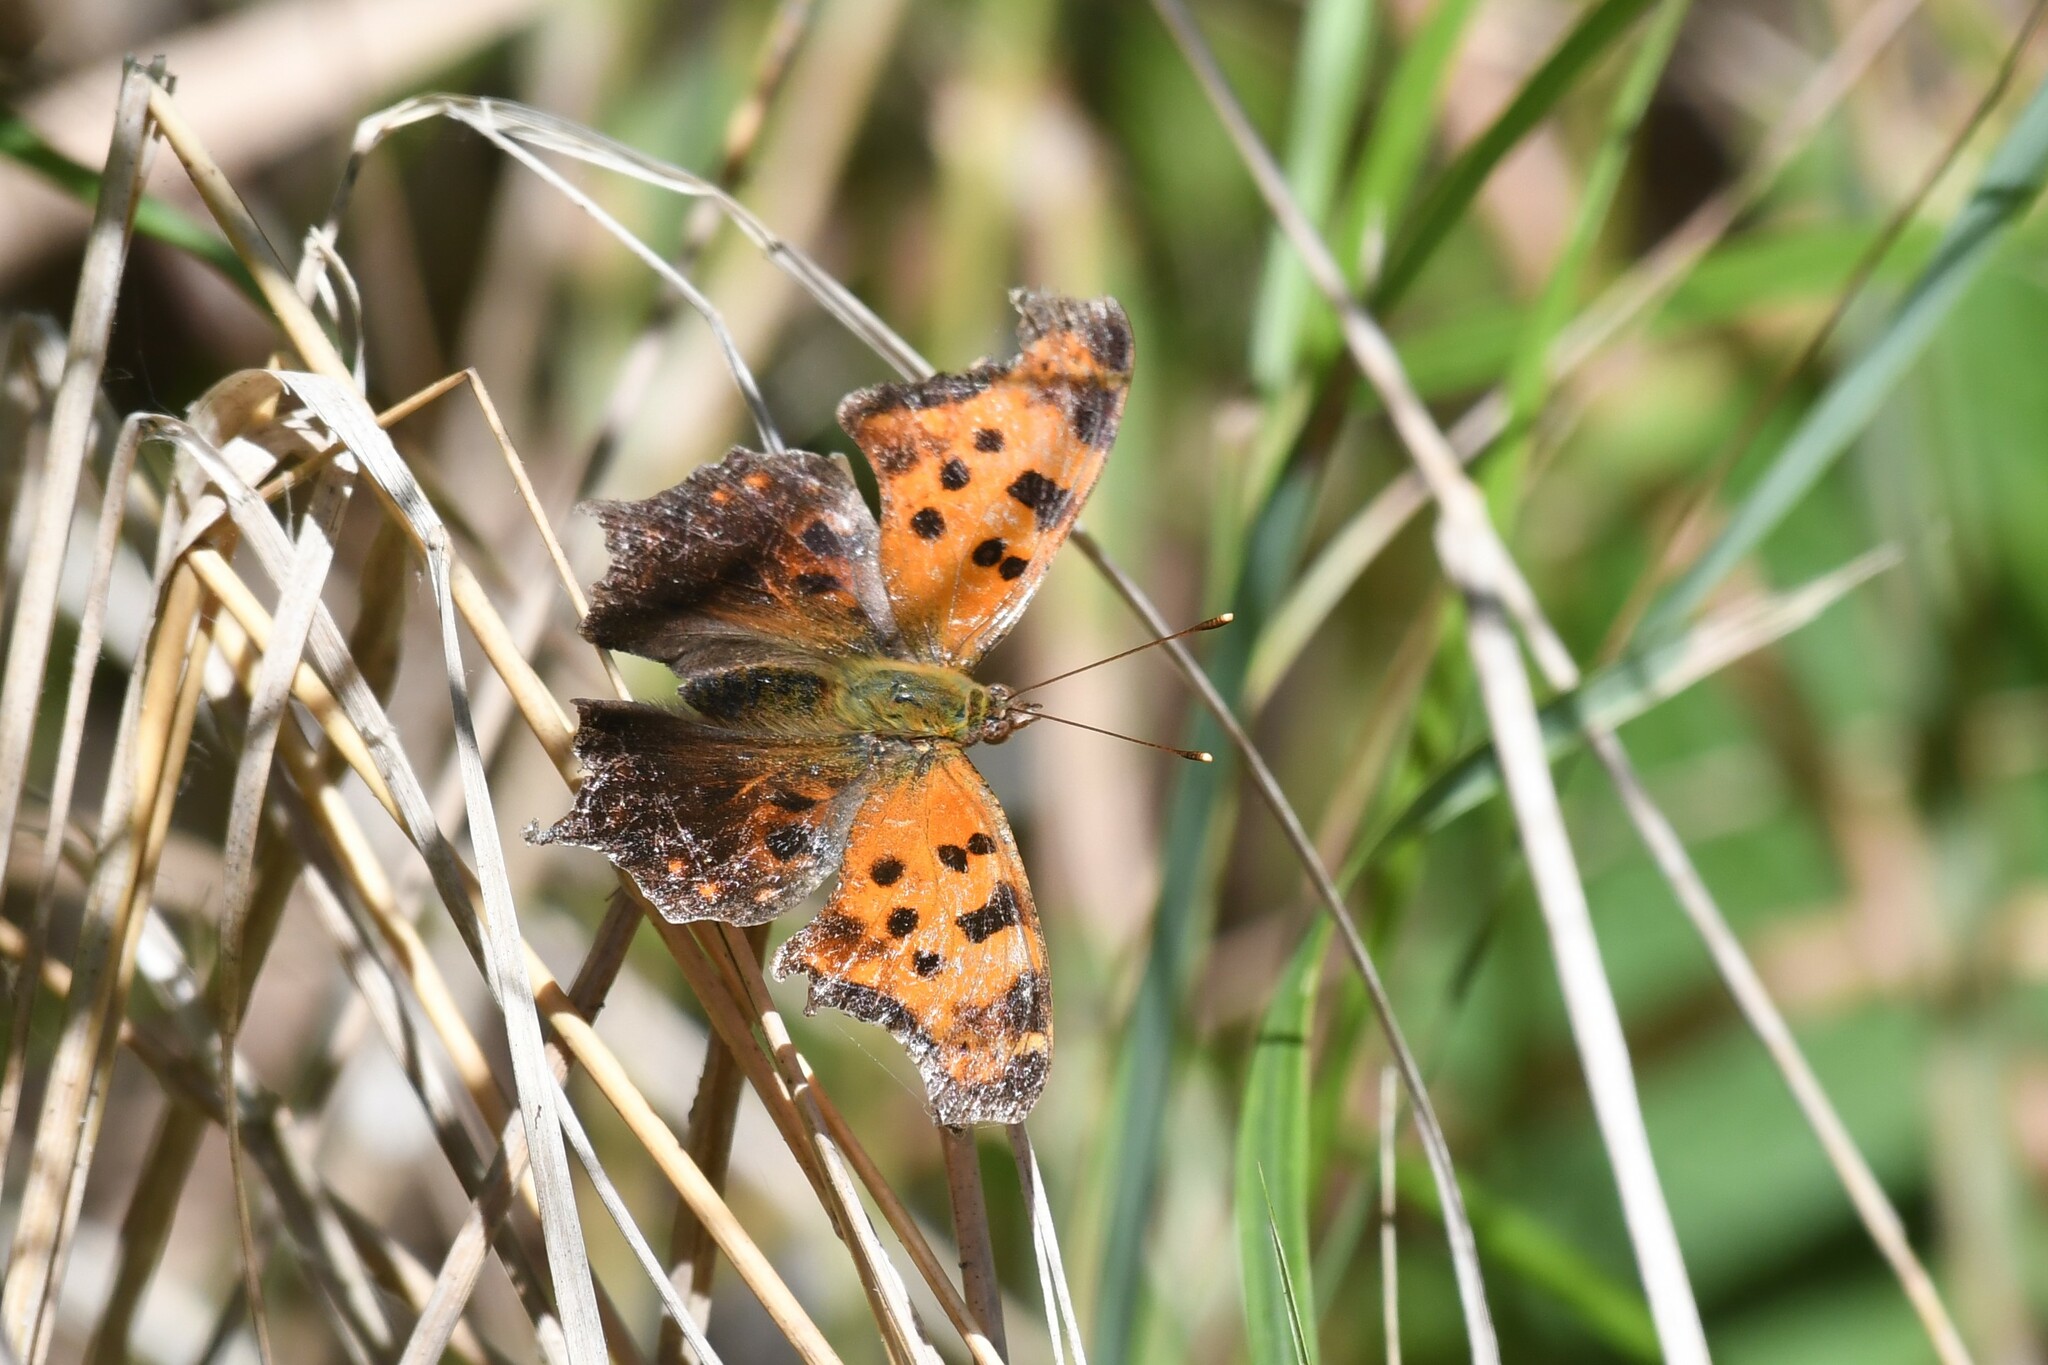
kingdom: Animalia
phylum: Arthropoda
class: Insecta
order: Lepidoptera
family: Nymphalidae
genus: Polygonia
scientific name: Polygonia comma
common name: Eastern comma
